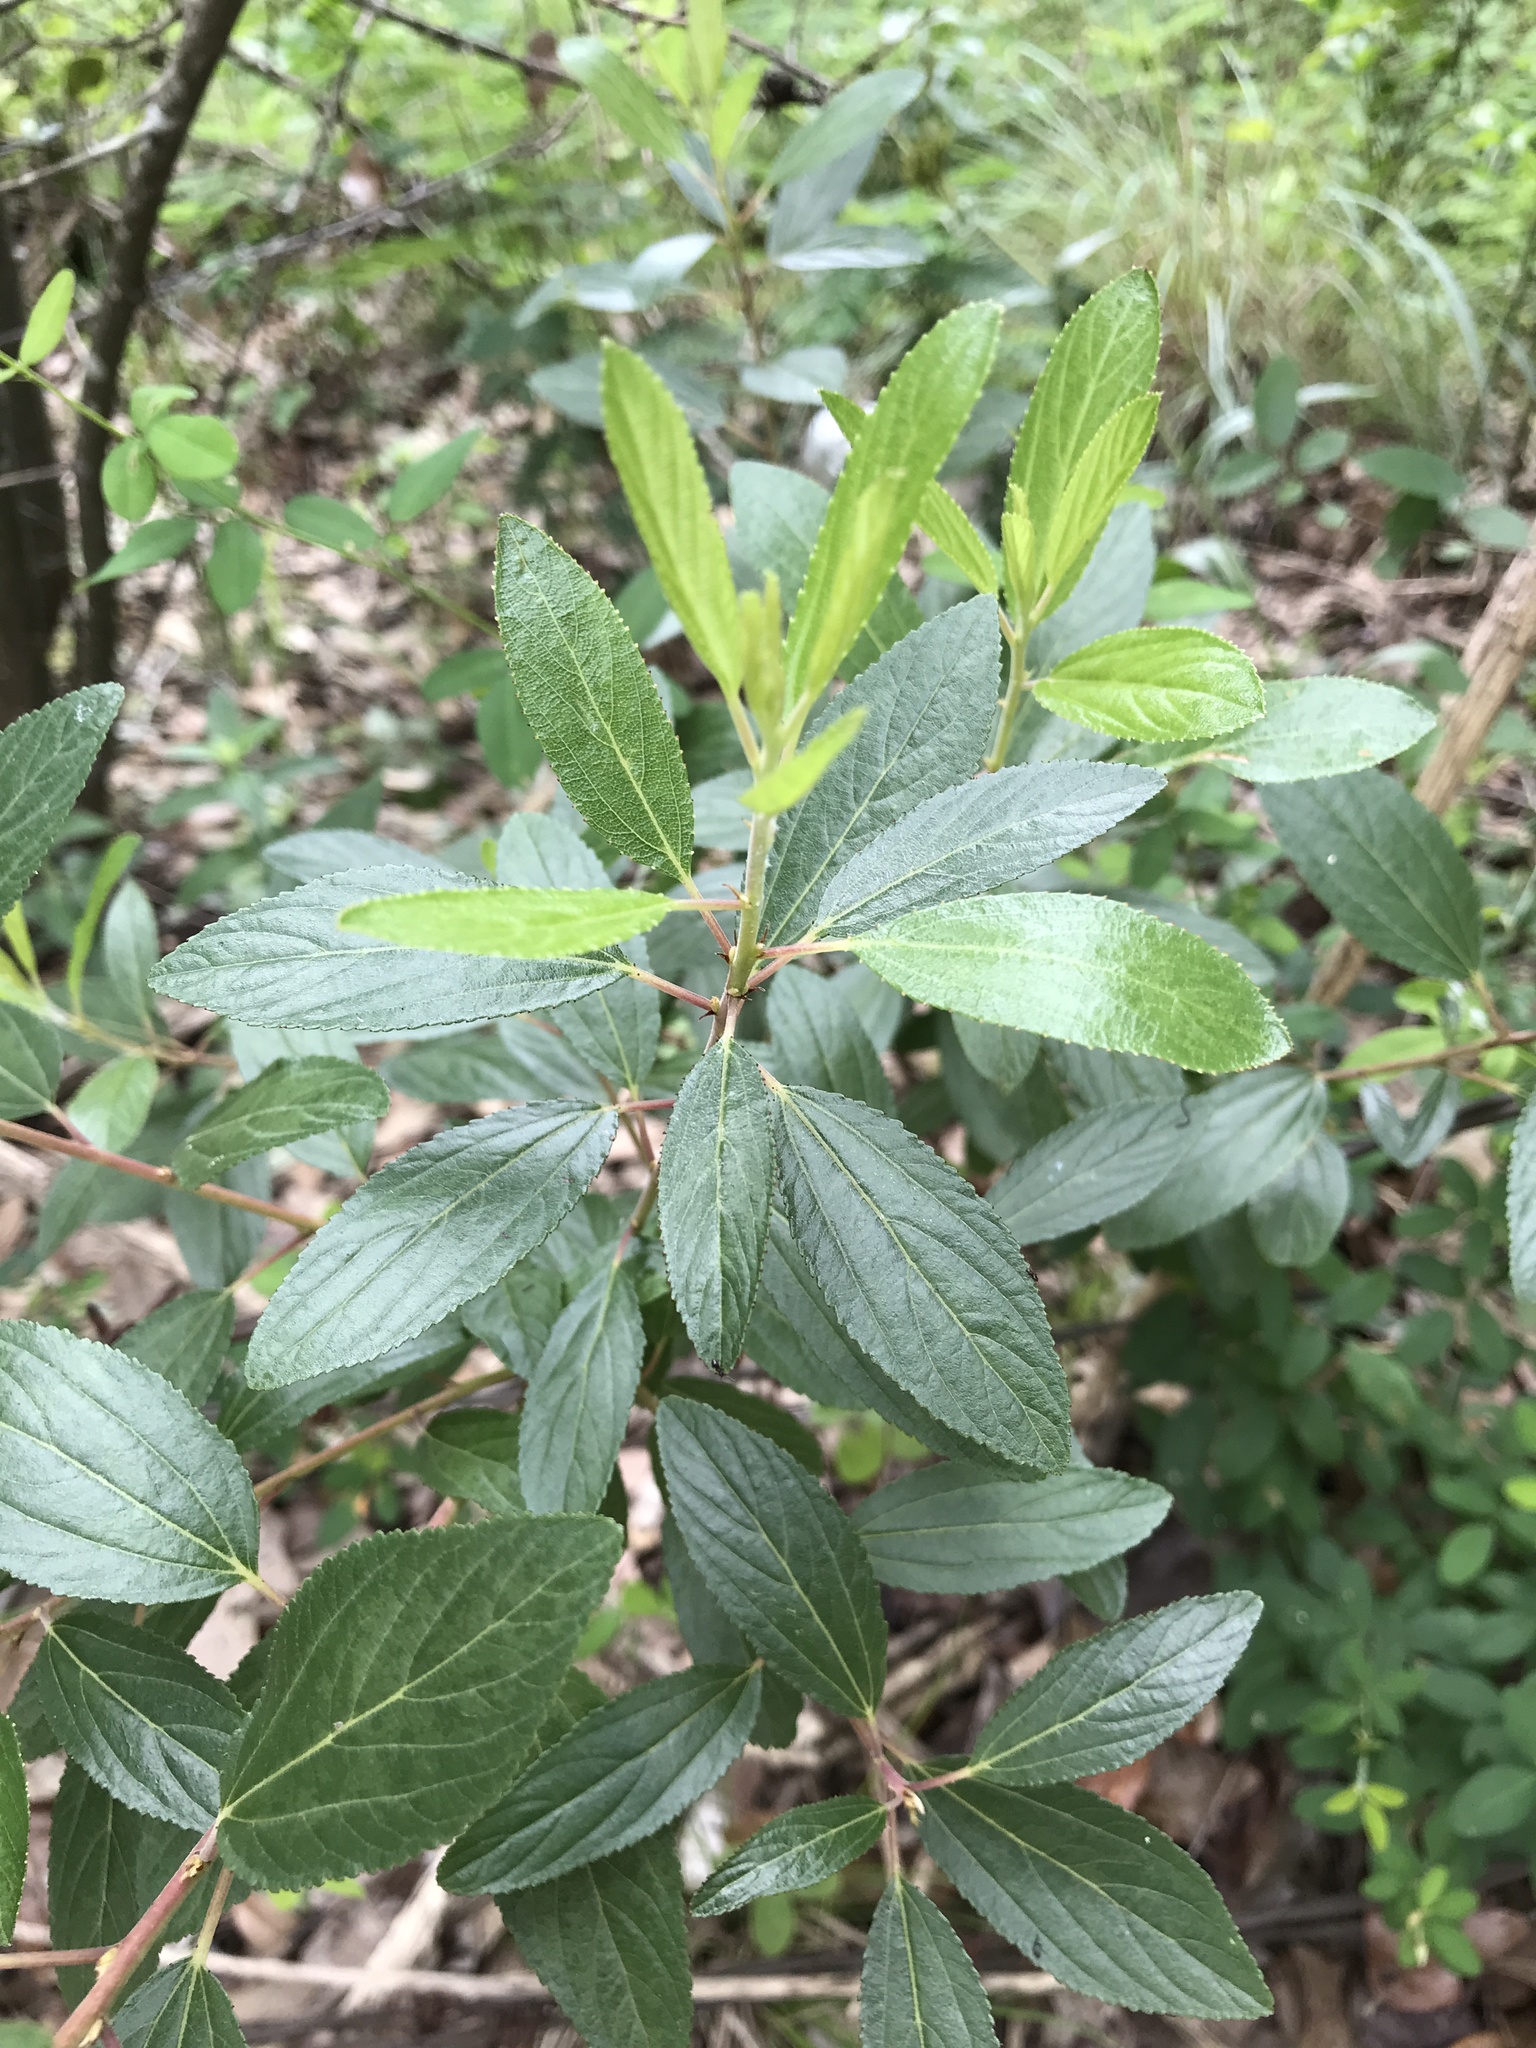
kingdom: Plantae
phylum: Tracheophyta
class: Magnoliopsida
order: Rosales
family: Rhamnaceae
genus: Ceanothus
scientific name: Ceanothus herbaceus
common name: Inland ceanothus
